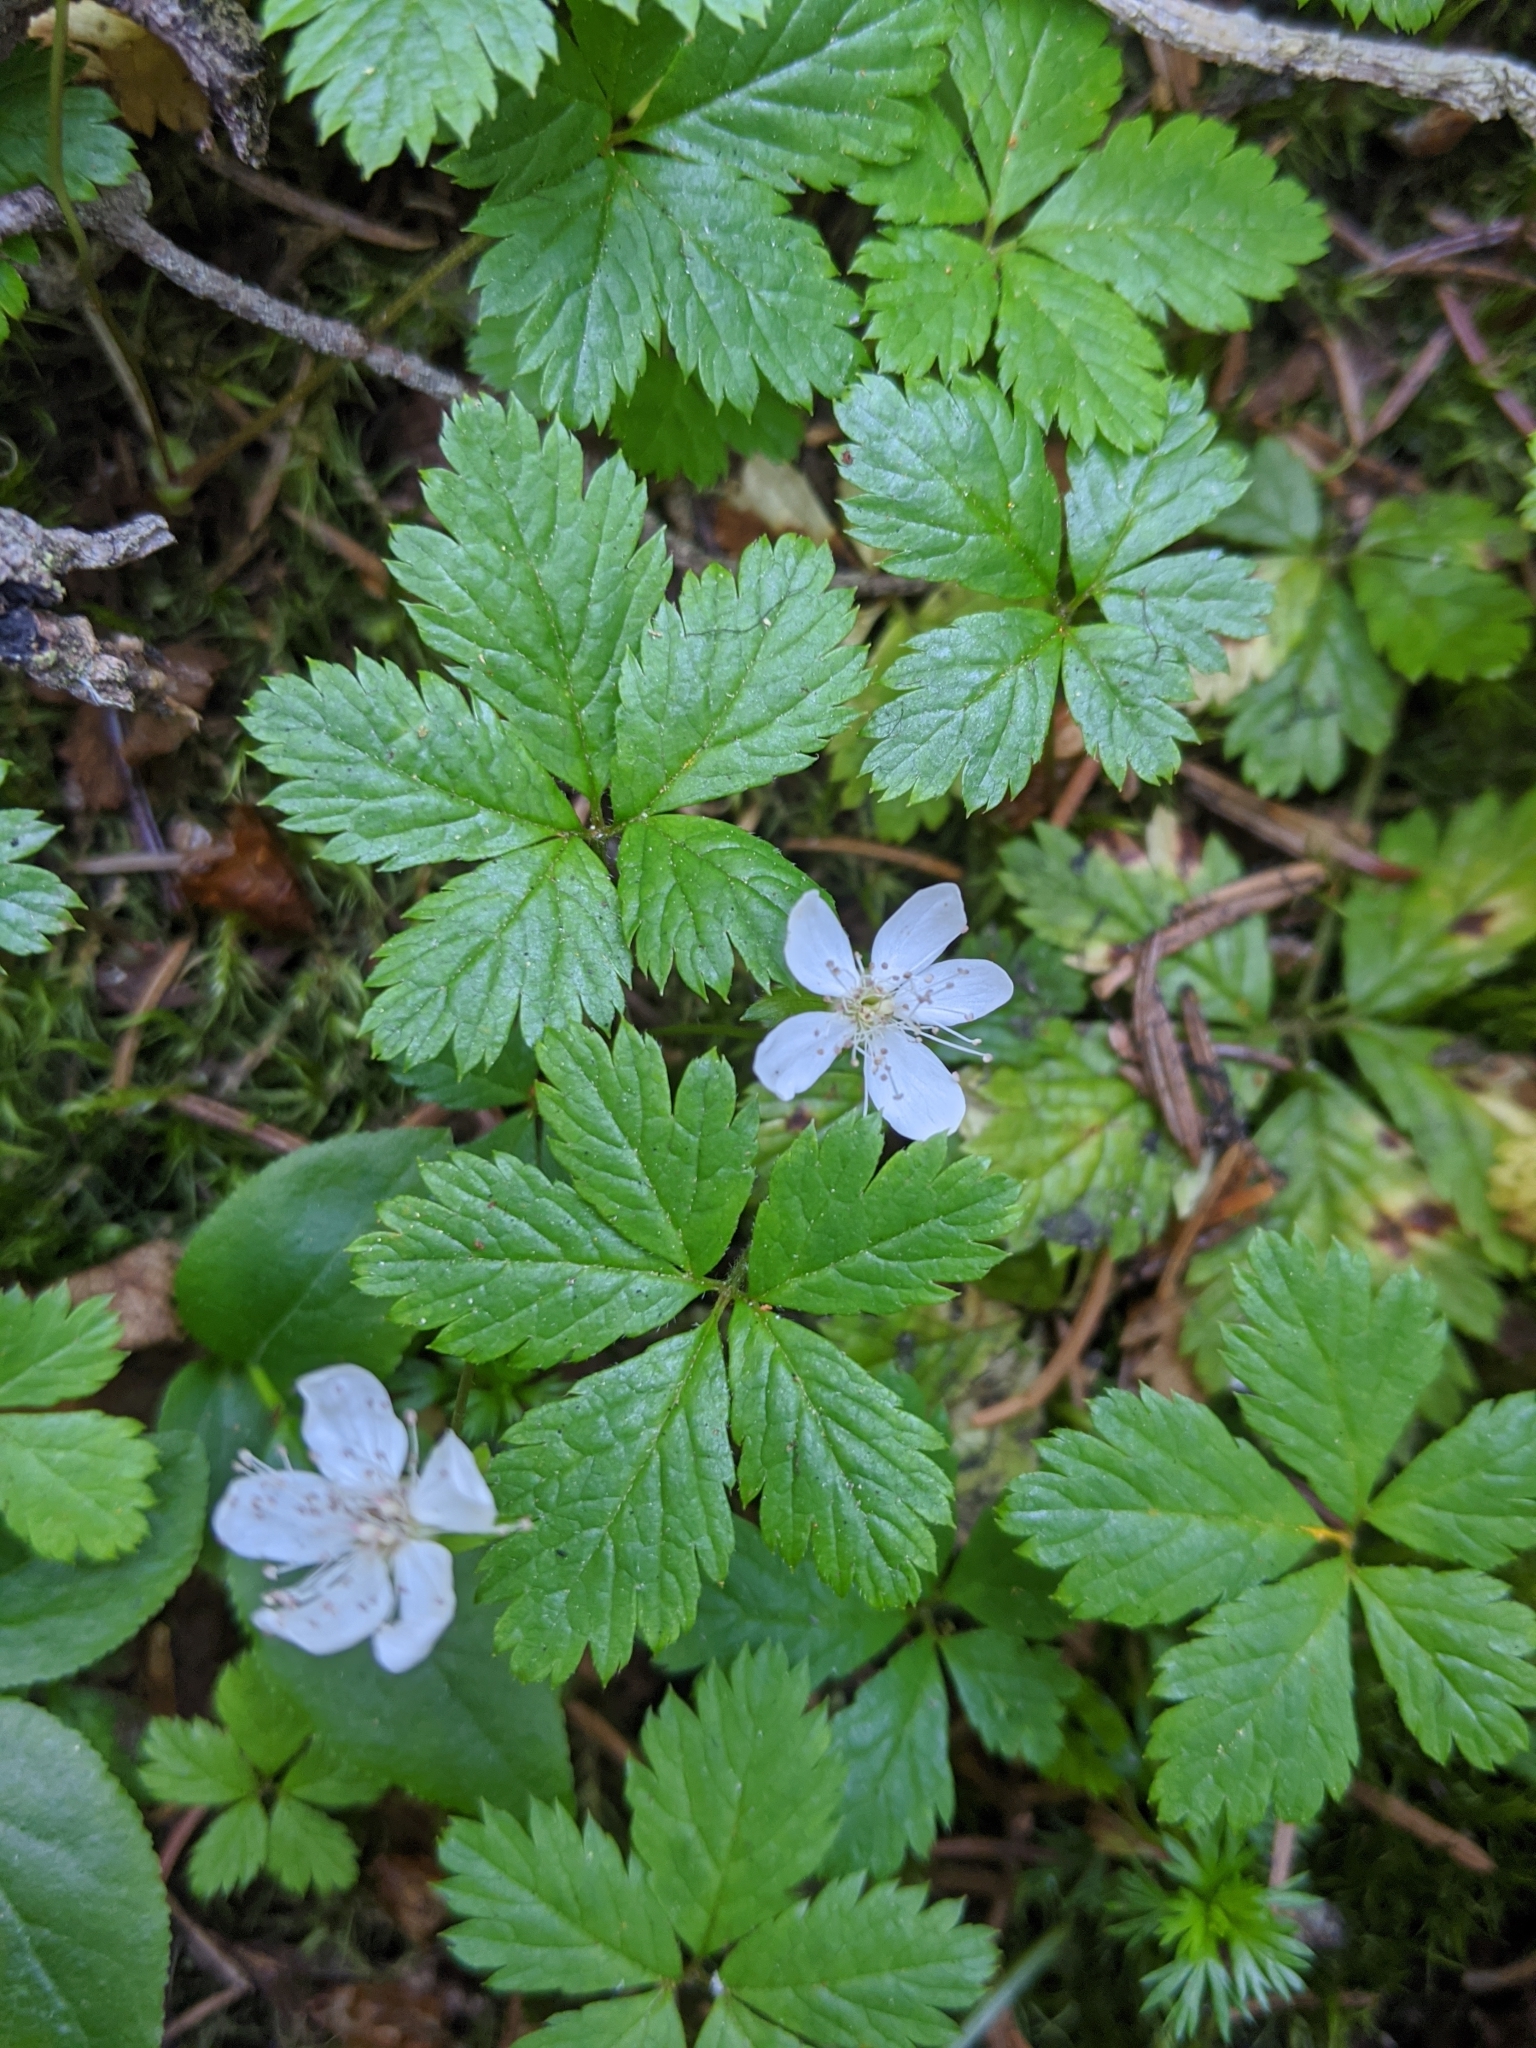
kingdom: Plantae
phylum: Tracheophyta
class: Magnoliopsida
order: Rosales
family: Rosaceae
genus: Rubus
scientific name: Rubus pedatus
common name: Creeping raspberry
